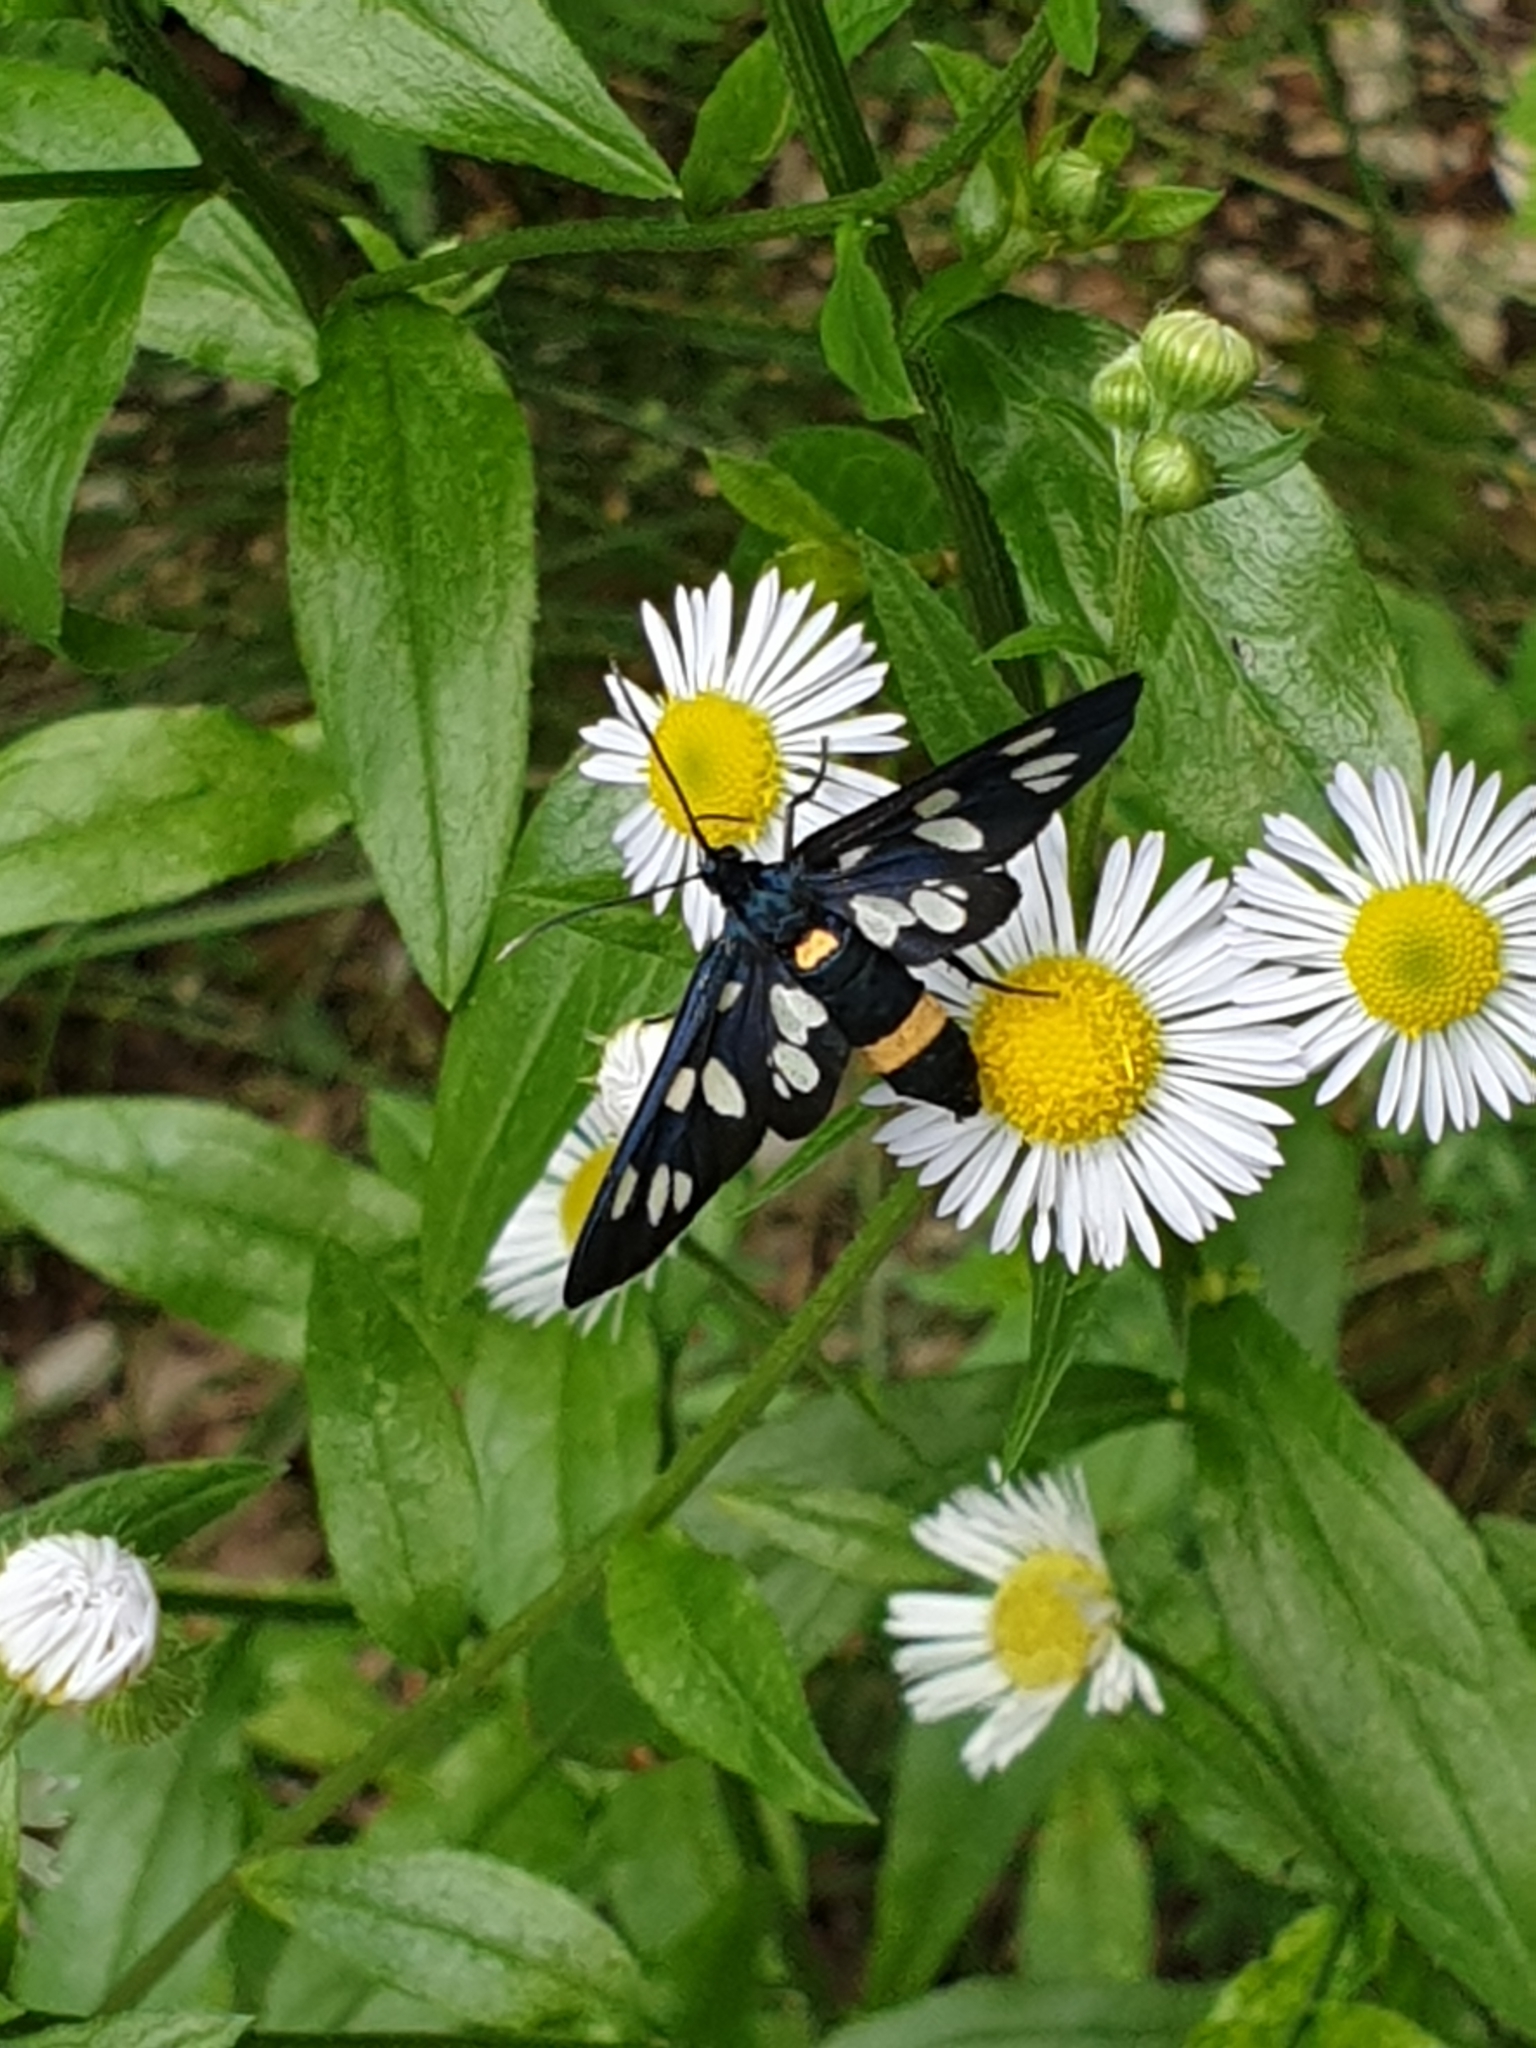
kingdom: Animalia
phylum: Arthropoda
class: Insecta
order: Lepidoptera
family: Erebidae
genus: Amata
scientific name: Amata phegea
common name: Nine-spotted
